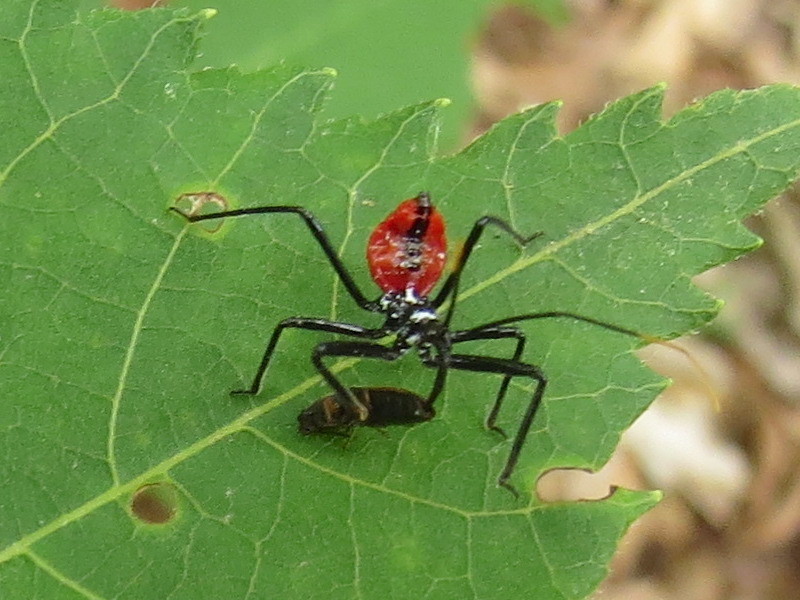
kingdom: Animalia
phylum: Arthropoda
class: Insecta
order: Hemiptera
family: Reduviidae
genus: Arilus
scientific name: Arilus cristatus
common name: North american wheel bug
